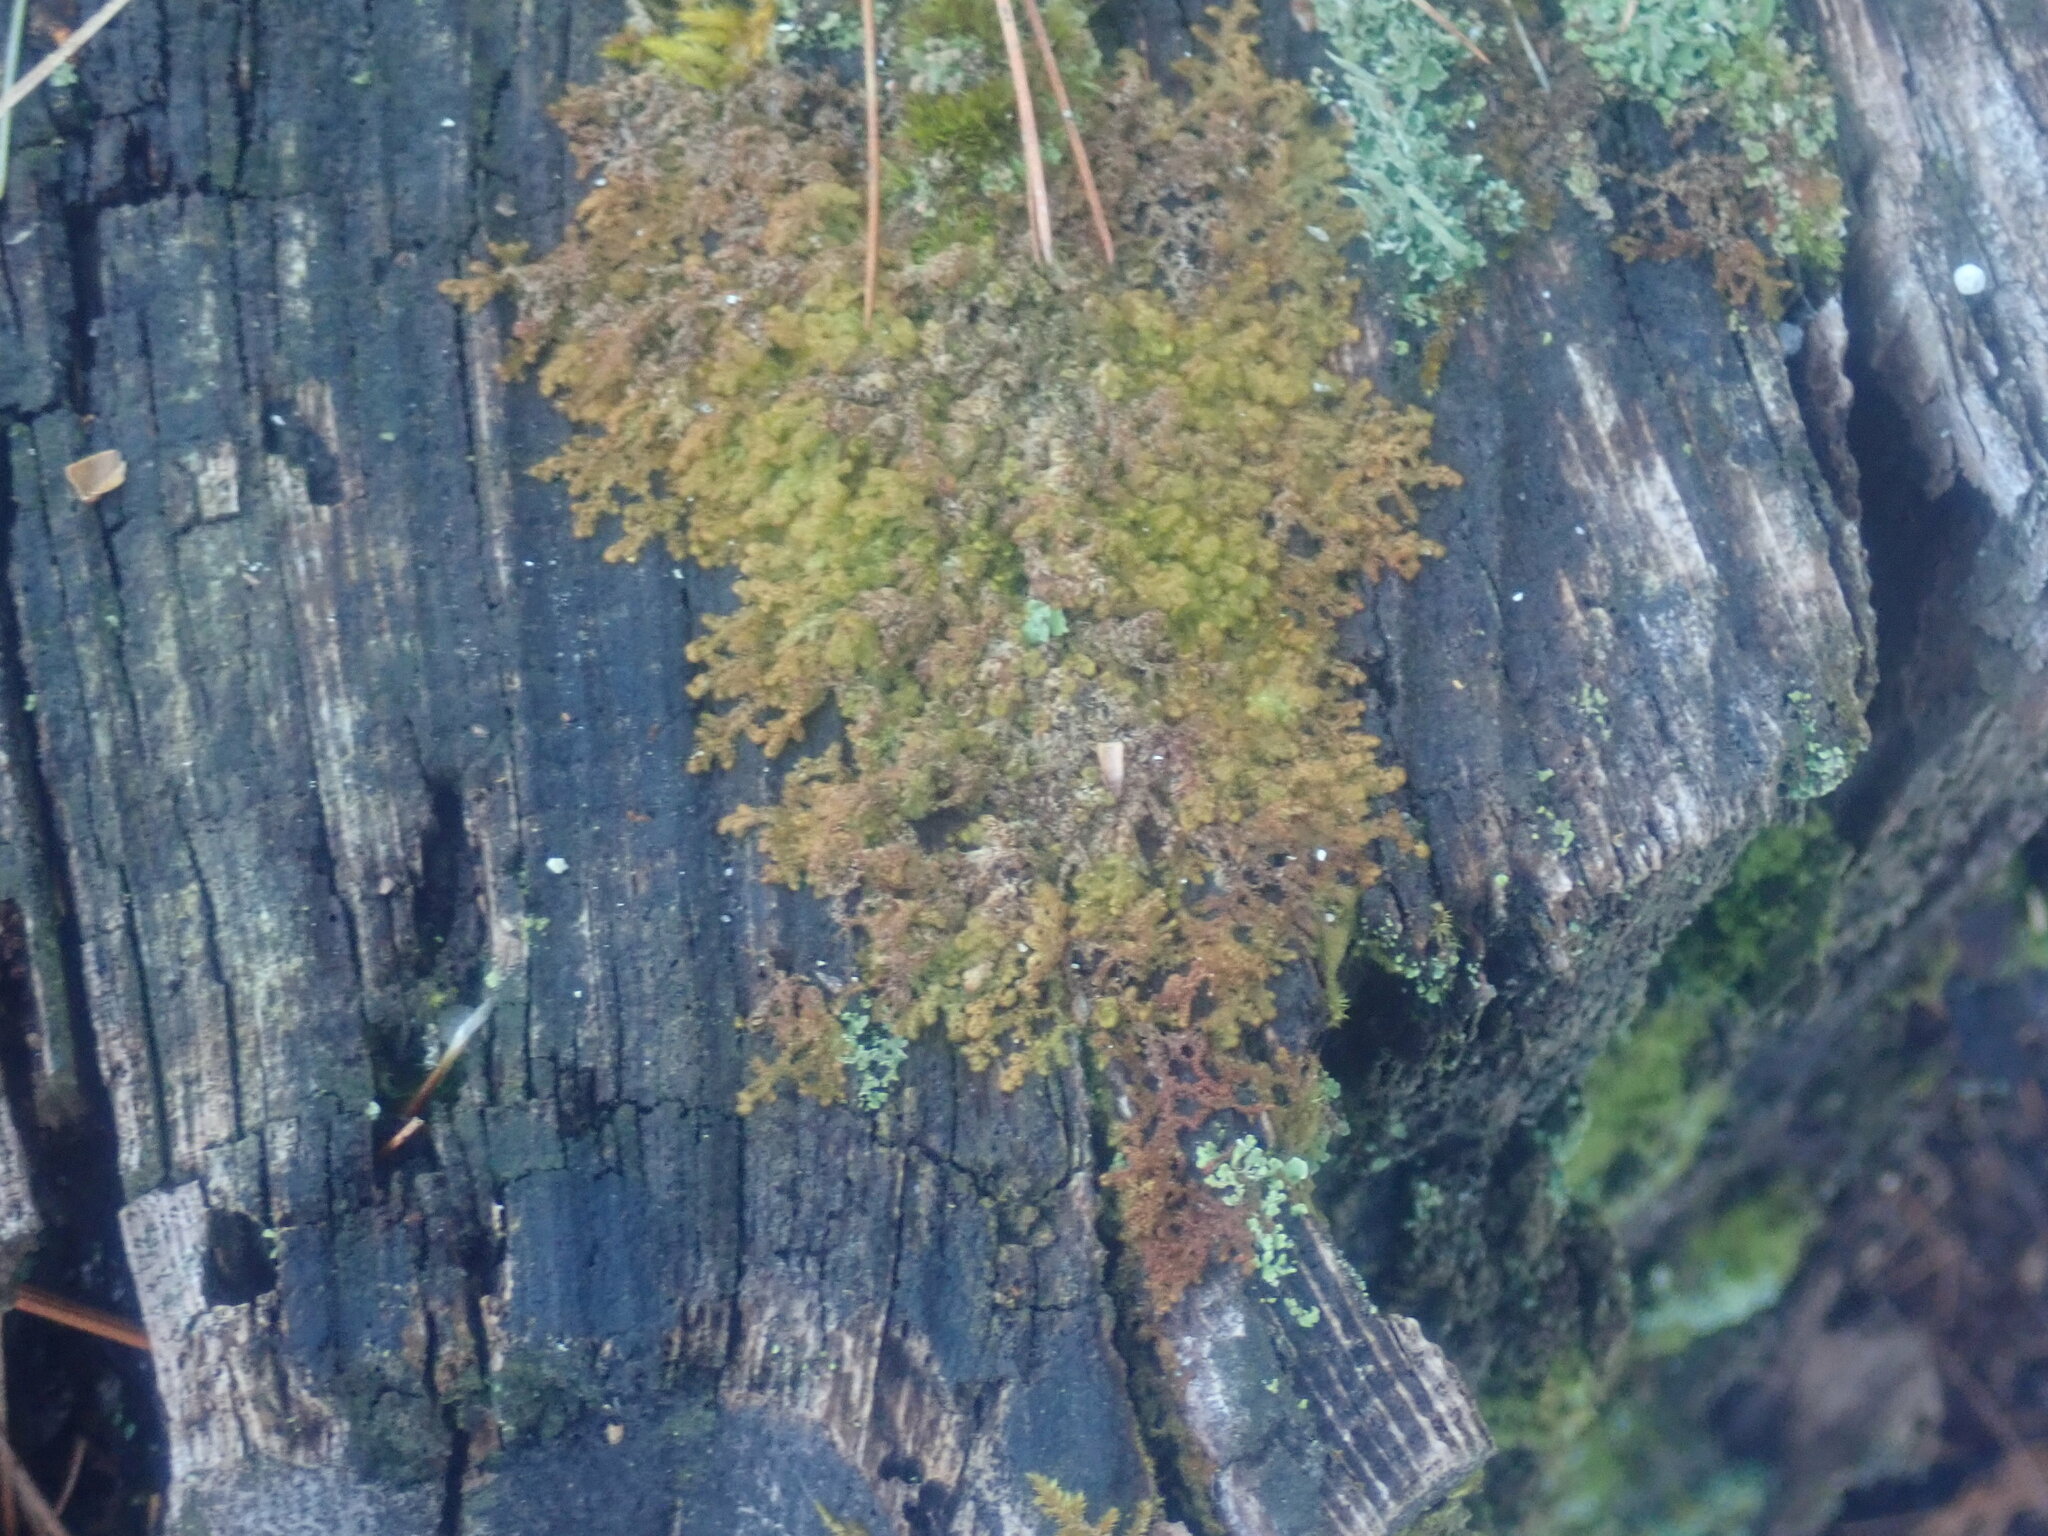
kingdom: Plantae
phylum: Marchantiophyta
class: Jungermanniopsida
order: Ptilidiales
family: Ptilidiaceae
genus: Ptilidium
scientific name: Ptilidium pulcherrimum
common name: Tree fringewort
